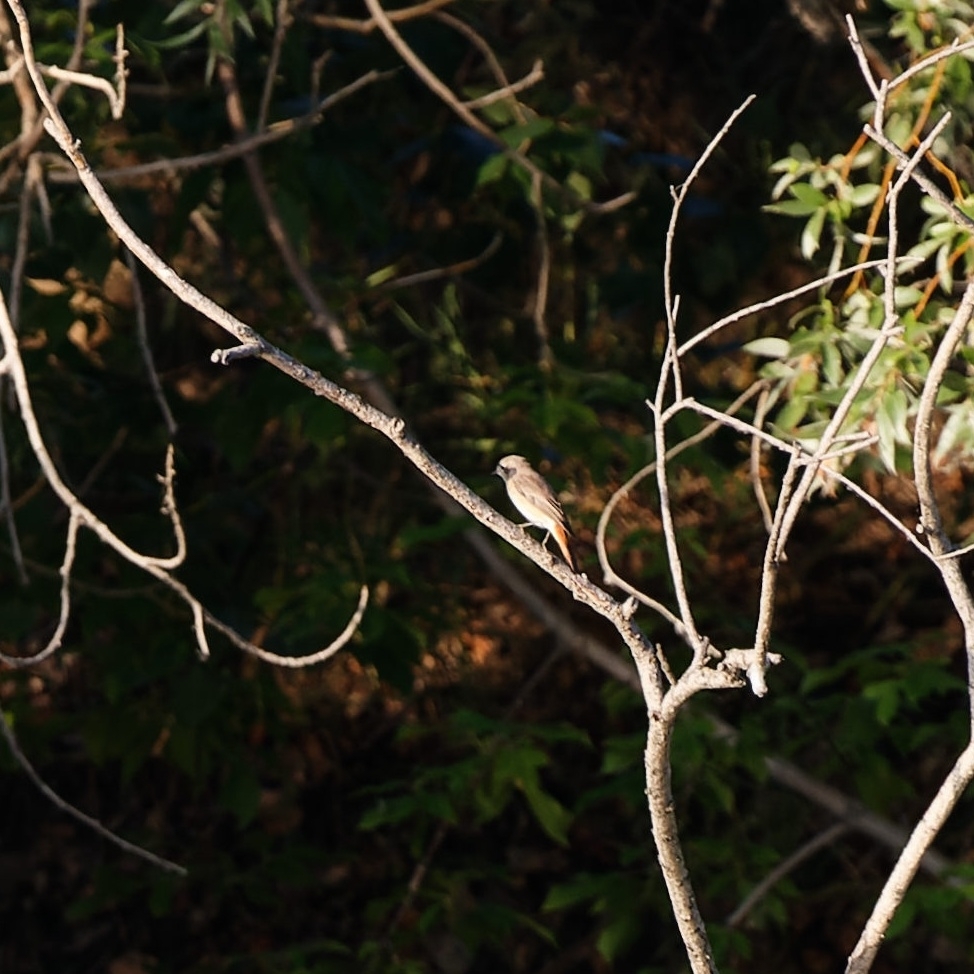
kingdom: Animalia
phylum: Chordata
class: Aves
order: Passeriformes
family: Muscicapidae
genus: Phoenicurus
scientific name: Phoenicurus phoenicurus
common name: Common redstart
